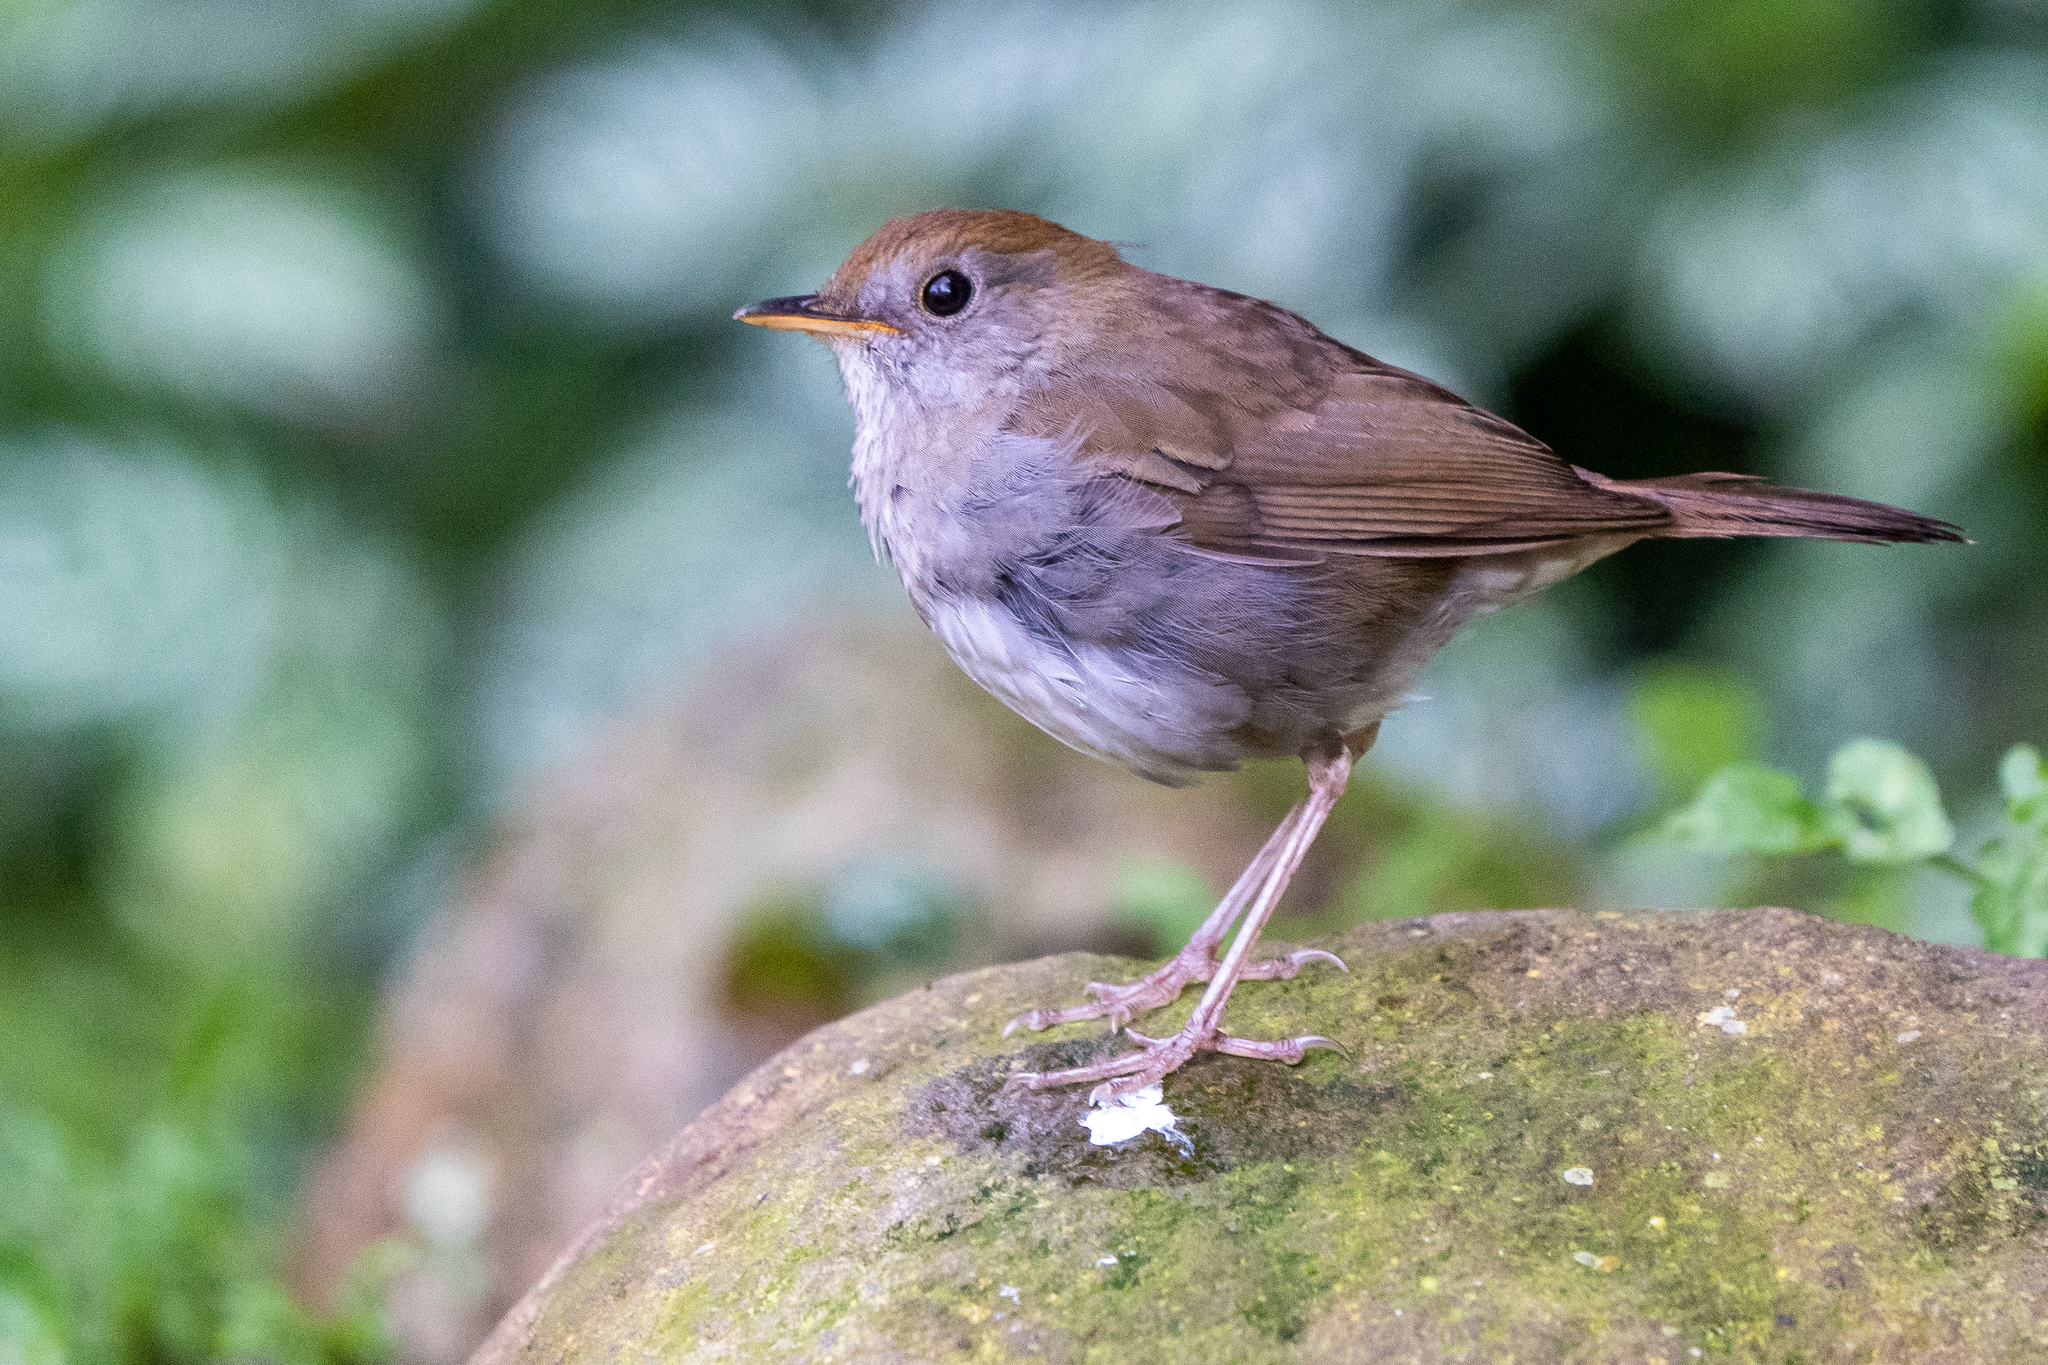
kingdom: Animalia
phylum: Chordata
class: Aves
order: Passeriformes
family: Turdidae
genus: Catharus
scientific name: Catharus frantzii
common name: Ruddy-capped nightingale-thrush
